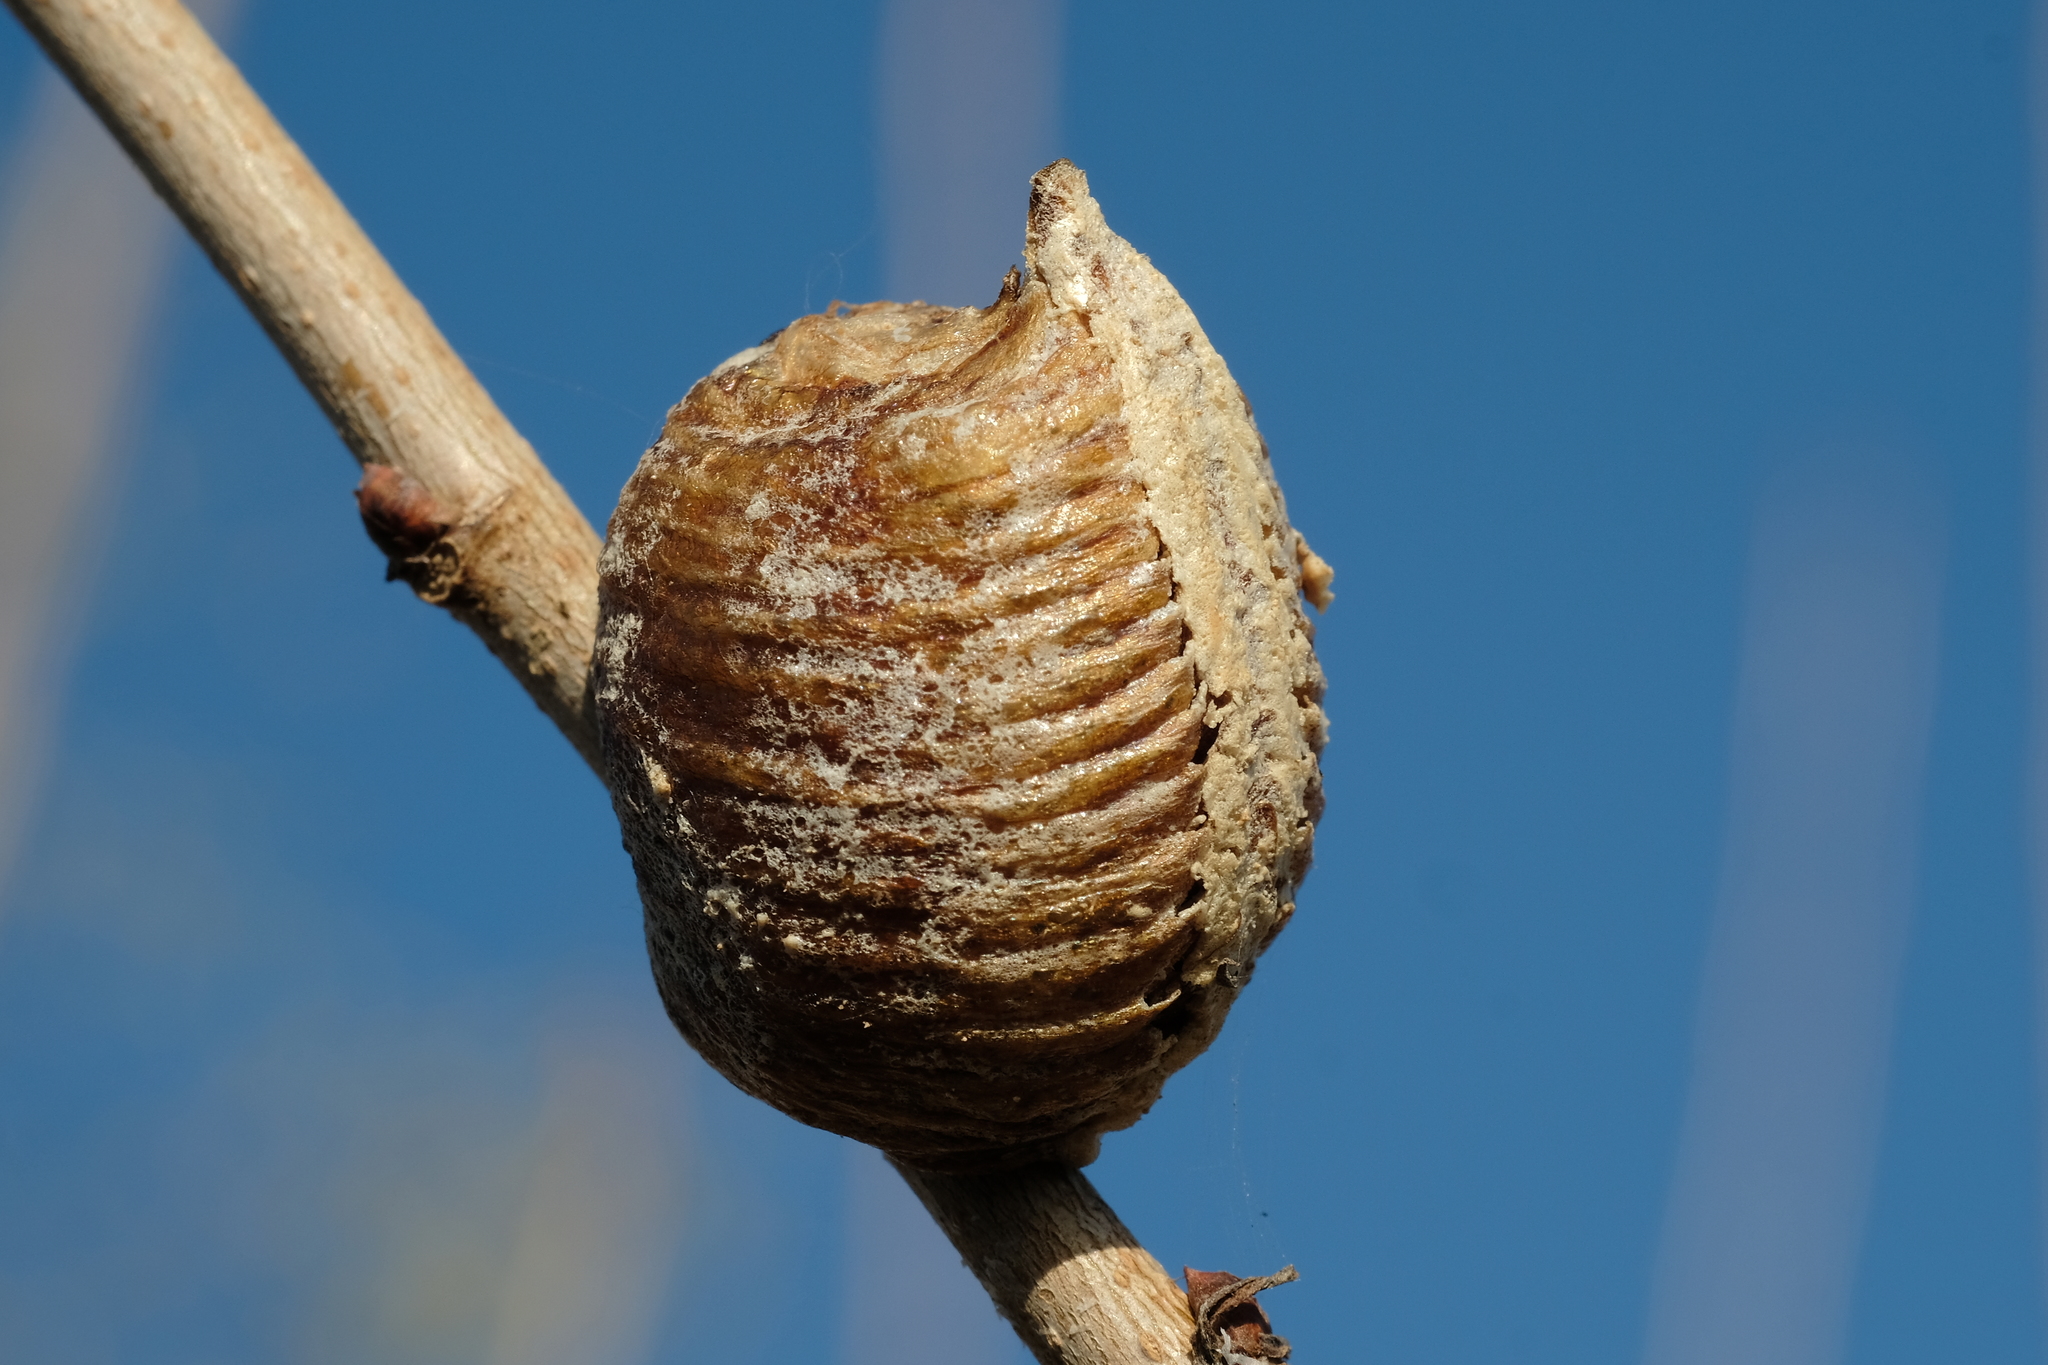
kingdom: Animalia
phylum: Arthropoda
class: Insecta
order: Mantodea
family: Mantidae
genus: Hierodula
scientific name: Hierodula transcaucasica
